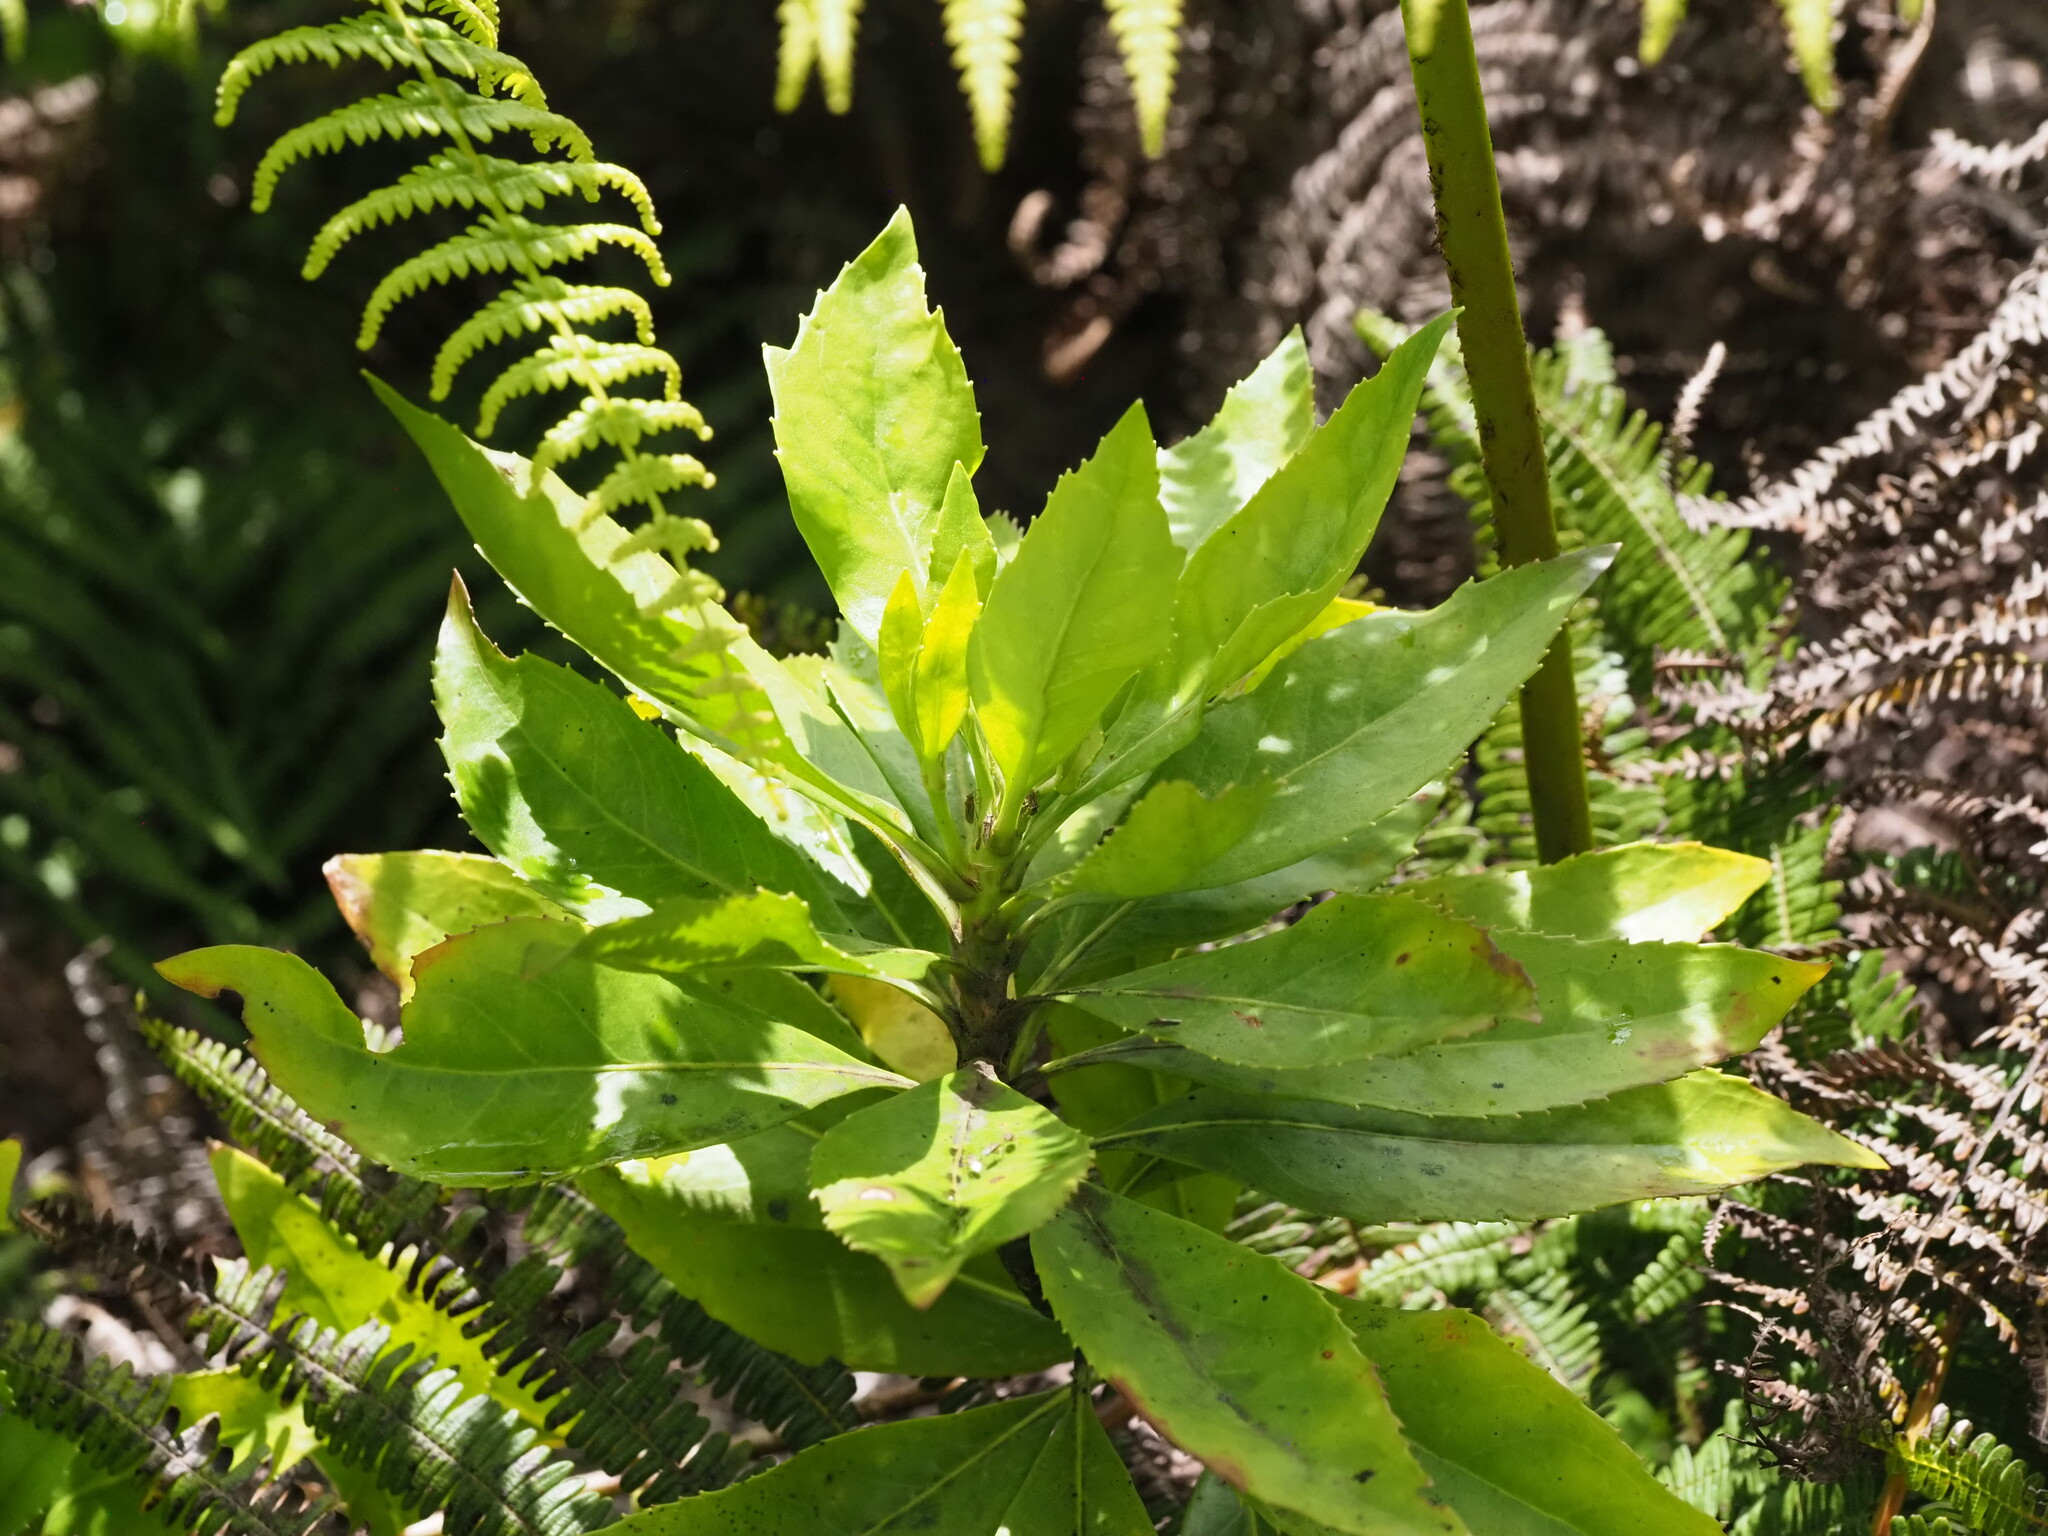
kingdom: Plantae
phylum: Tracheophyta
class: Magnoliopsida
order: Asterales
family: Goodeniaceae
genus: Scaevola
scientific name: Scaevola chamissoniana
